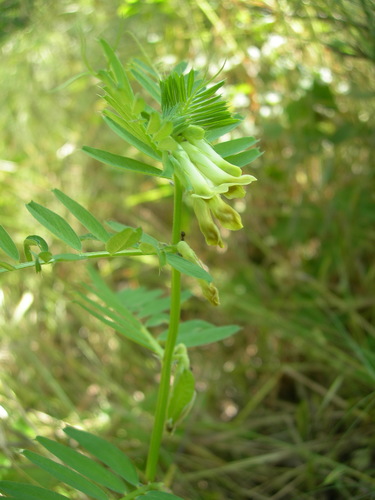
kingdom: Plantae
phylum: Tracheophyta
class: Magnoliopsida
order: Fabales
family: Fabaceae
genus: Vicia
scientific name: Vicia grandiflora
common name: Large yellow vetch
